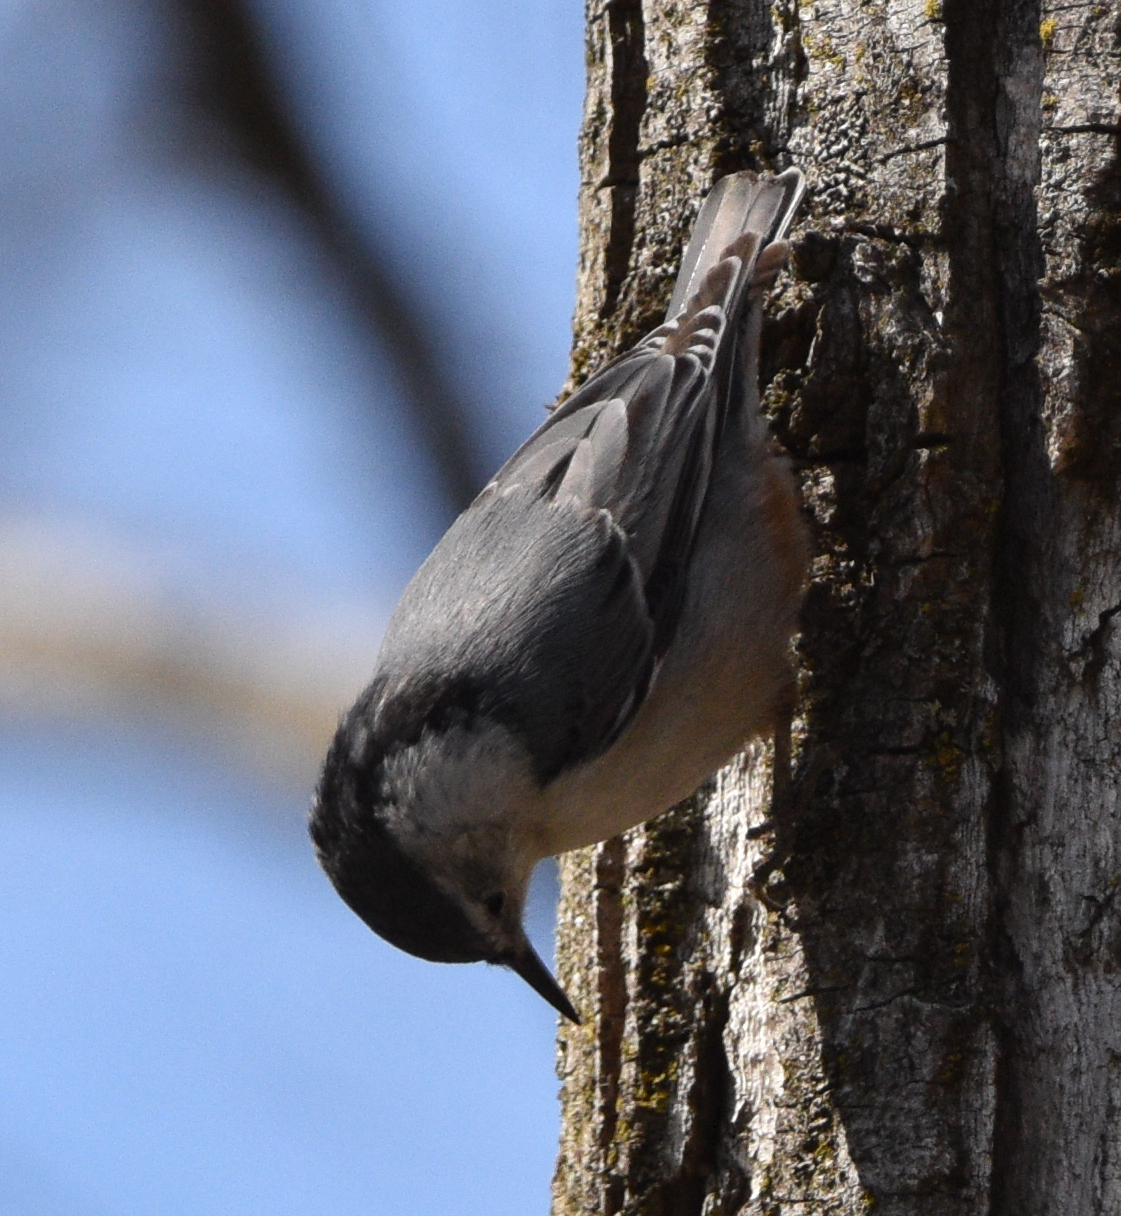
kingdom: Animalia
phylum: Chordata
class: Aves
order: Passeriformes
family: Sittidae
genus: Sitta
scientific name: Sitta carolinensis
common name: White-breasted nuthatch
